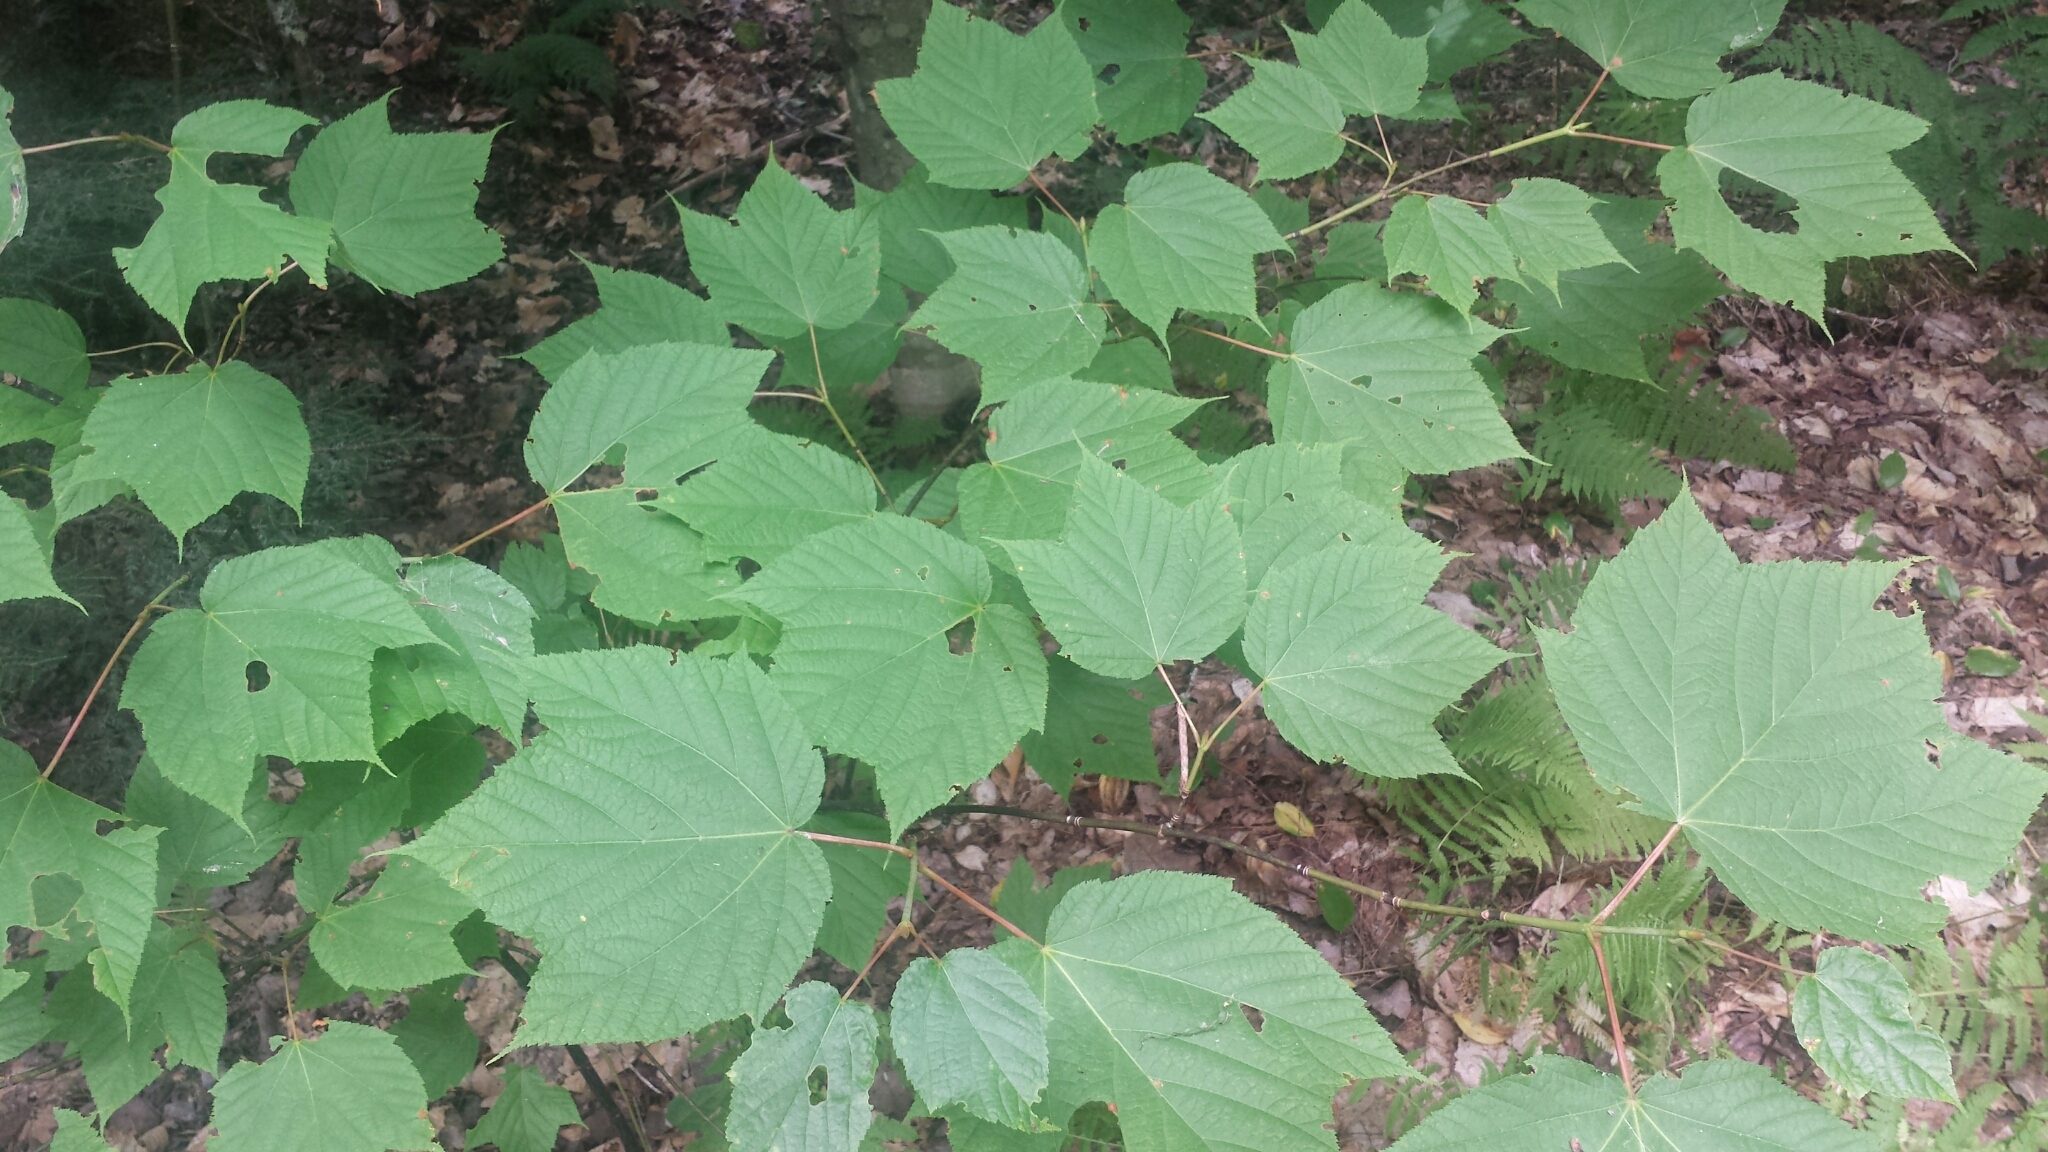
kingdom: Plantae
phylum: Tracheophyta
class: Magnoliopsida
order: Sapindales
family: Sapindaceae
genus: Acer
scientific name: Acer pensylvanicum
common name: Moosewood
